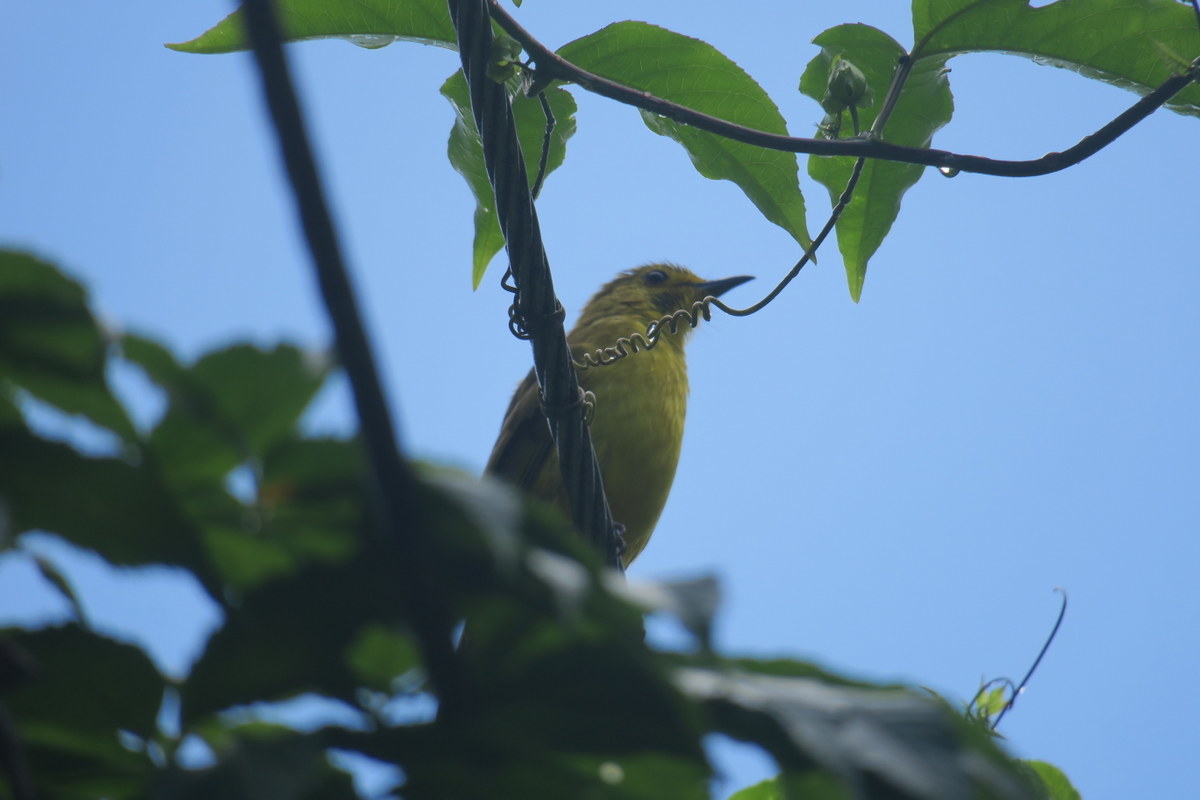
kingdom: Animalia
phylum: Chordata
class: Aves
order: Passeriformes
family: Pycnonotidae
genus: Acritillas
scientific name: Acritillas indica
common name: Yellow-browed bulbul
